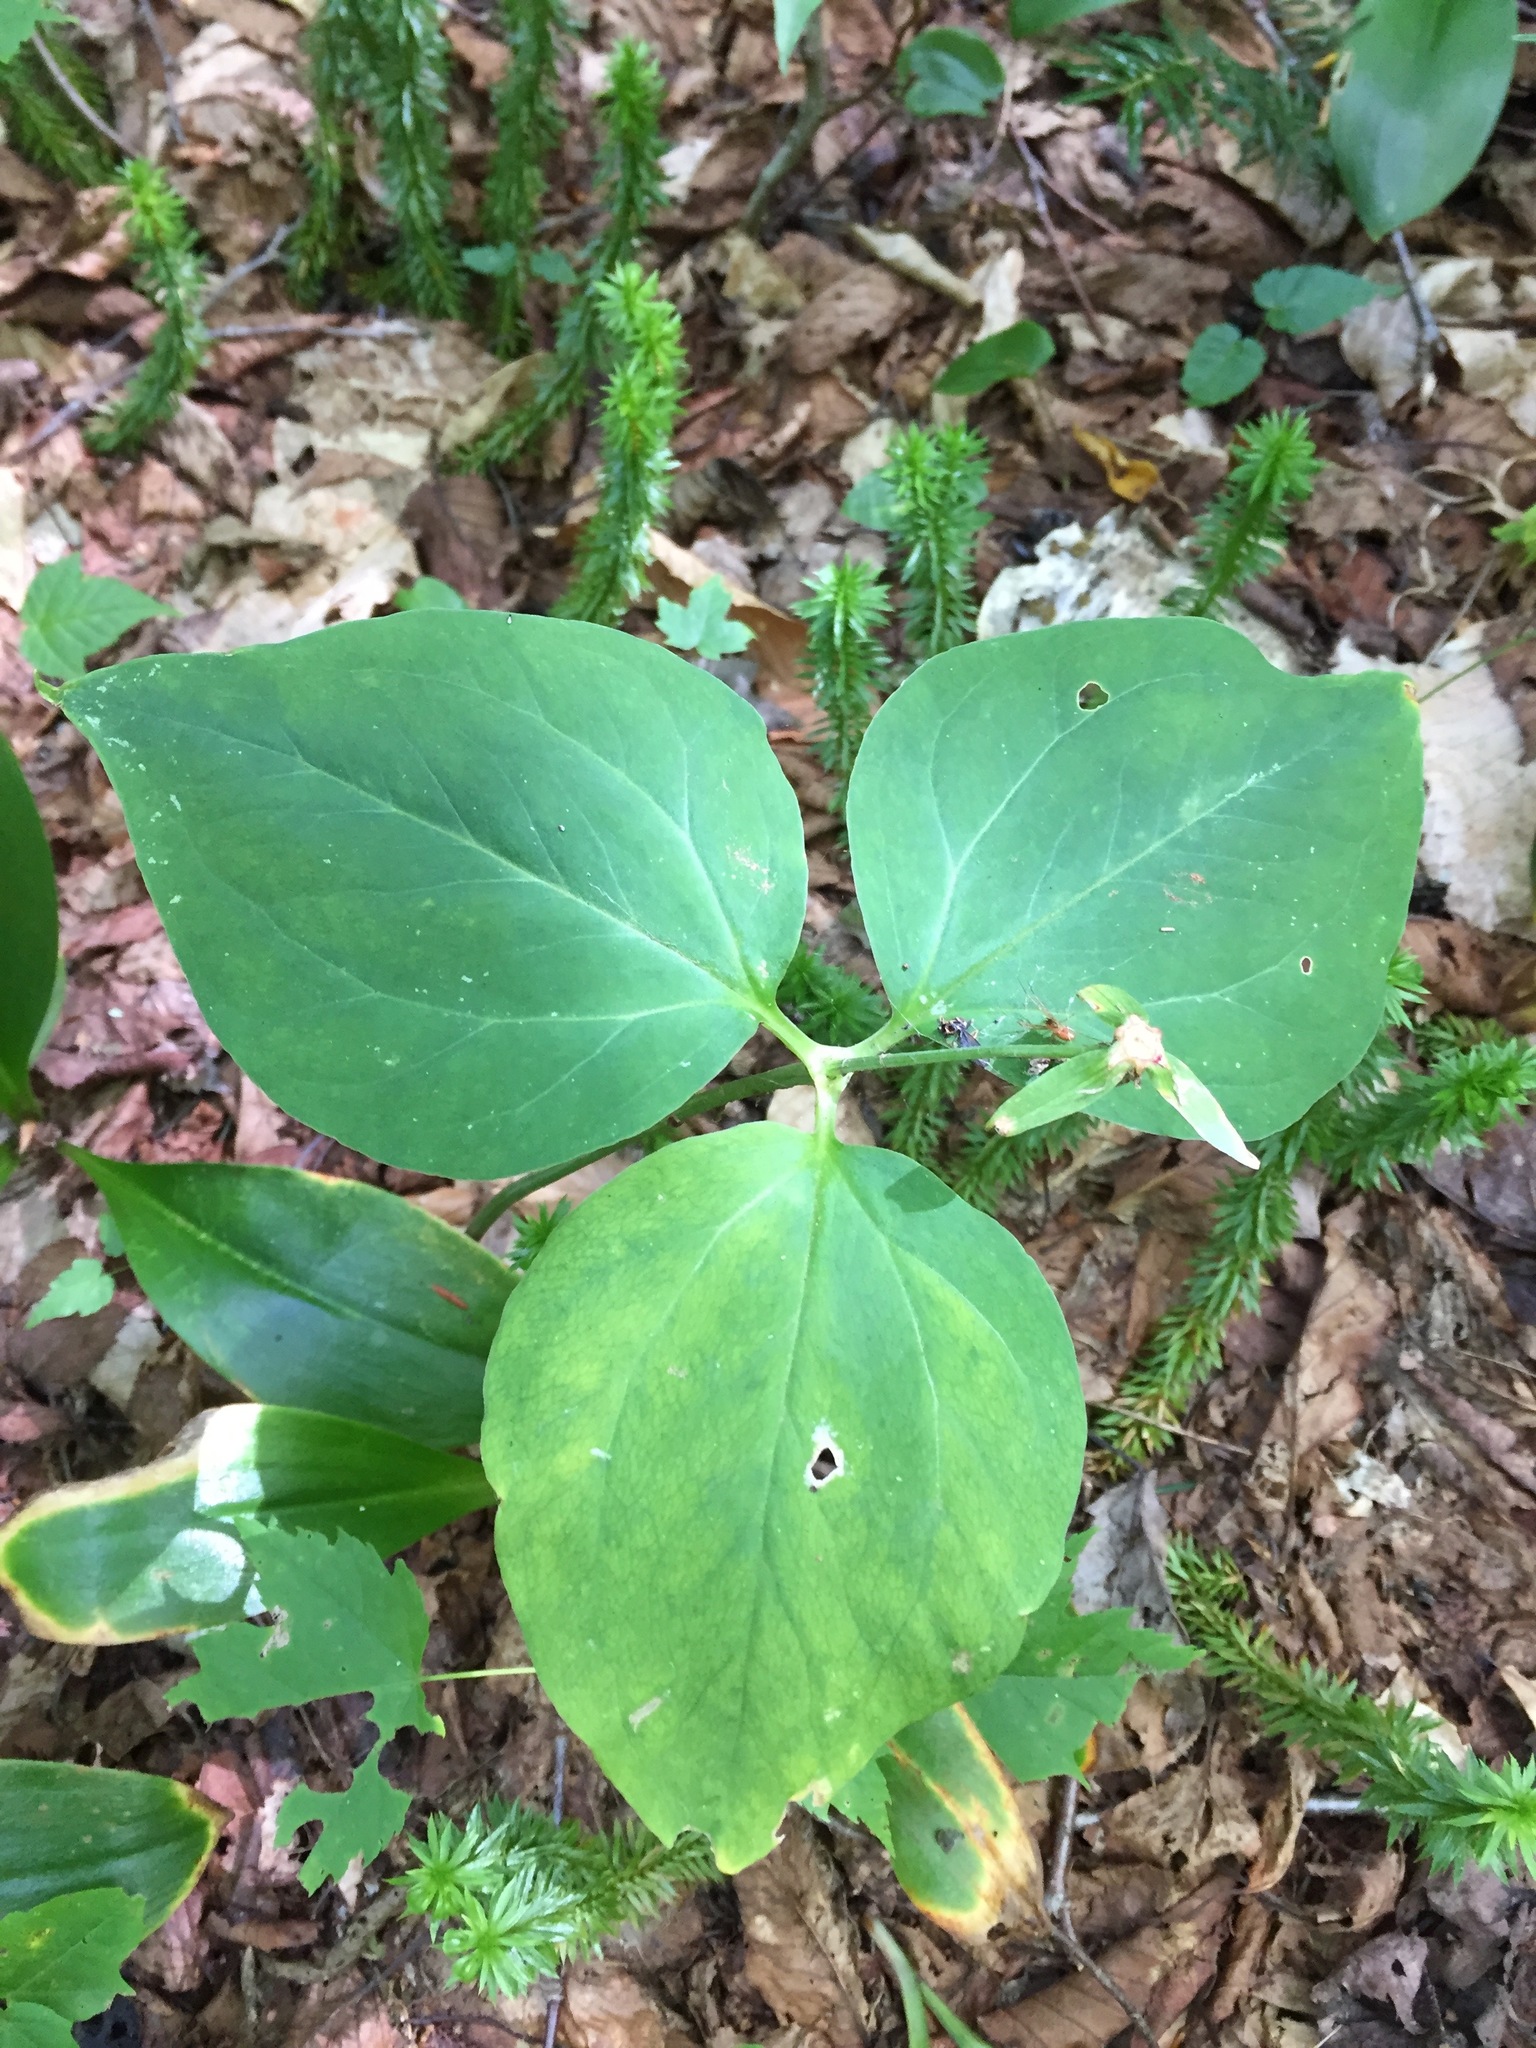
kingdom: Plantae
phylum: Tracheophyta
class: Liliopsida
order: Liliales
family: Melanthiaceae
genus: Trillium
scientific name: Trillium undulatum
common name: Paint trillium
